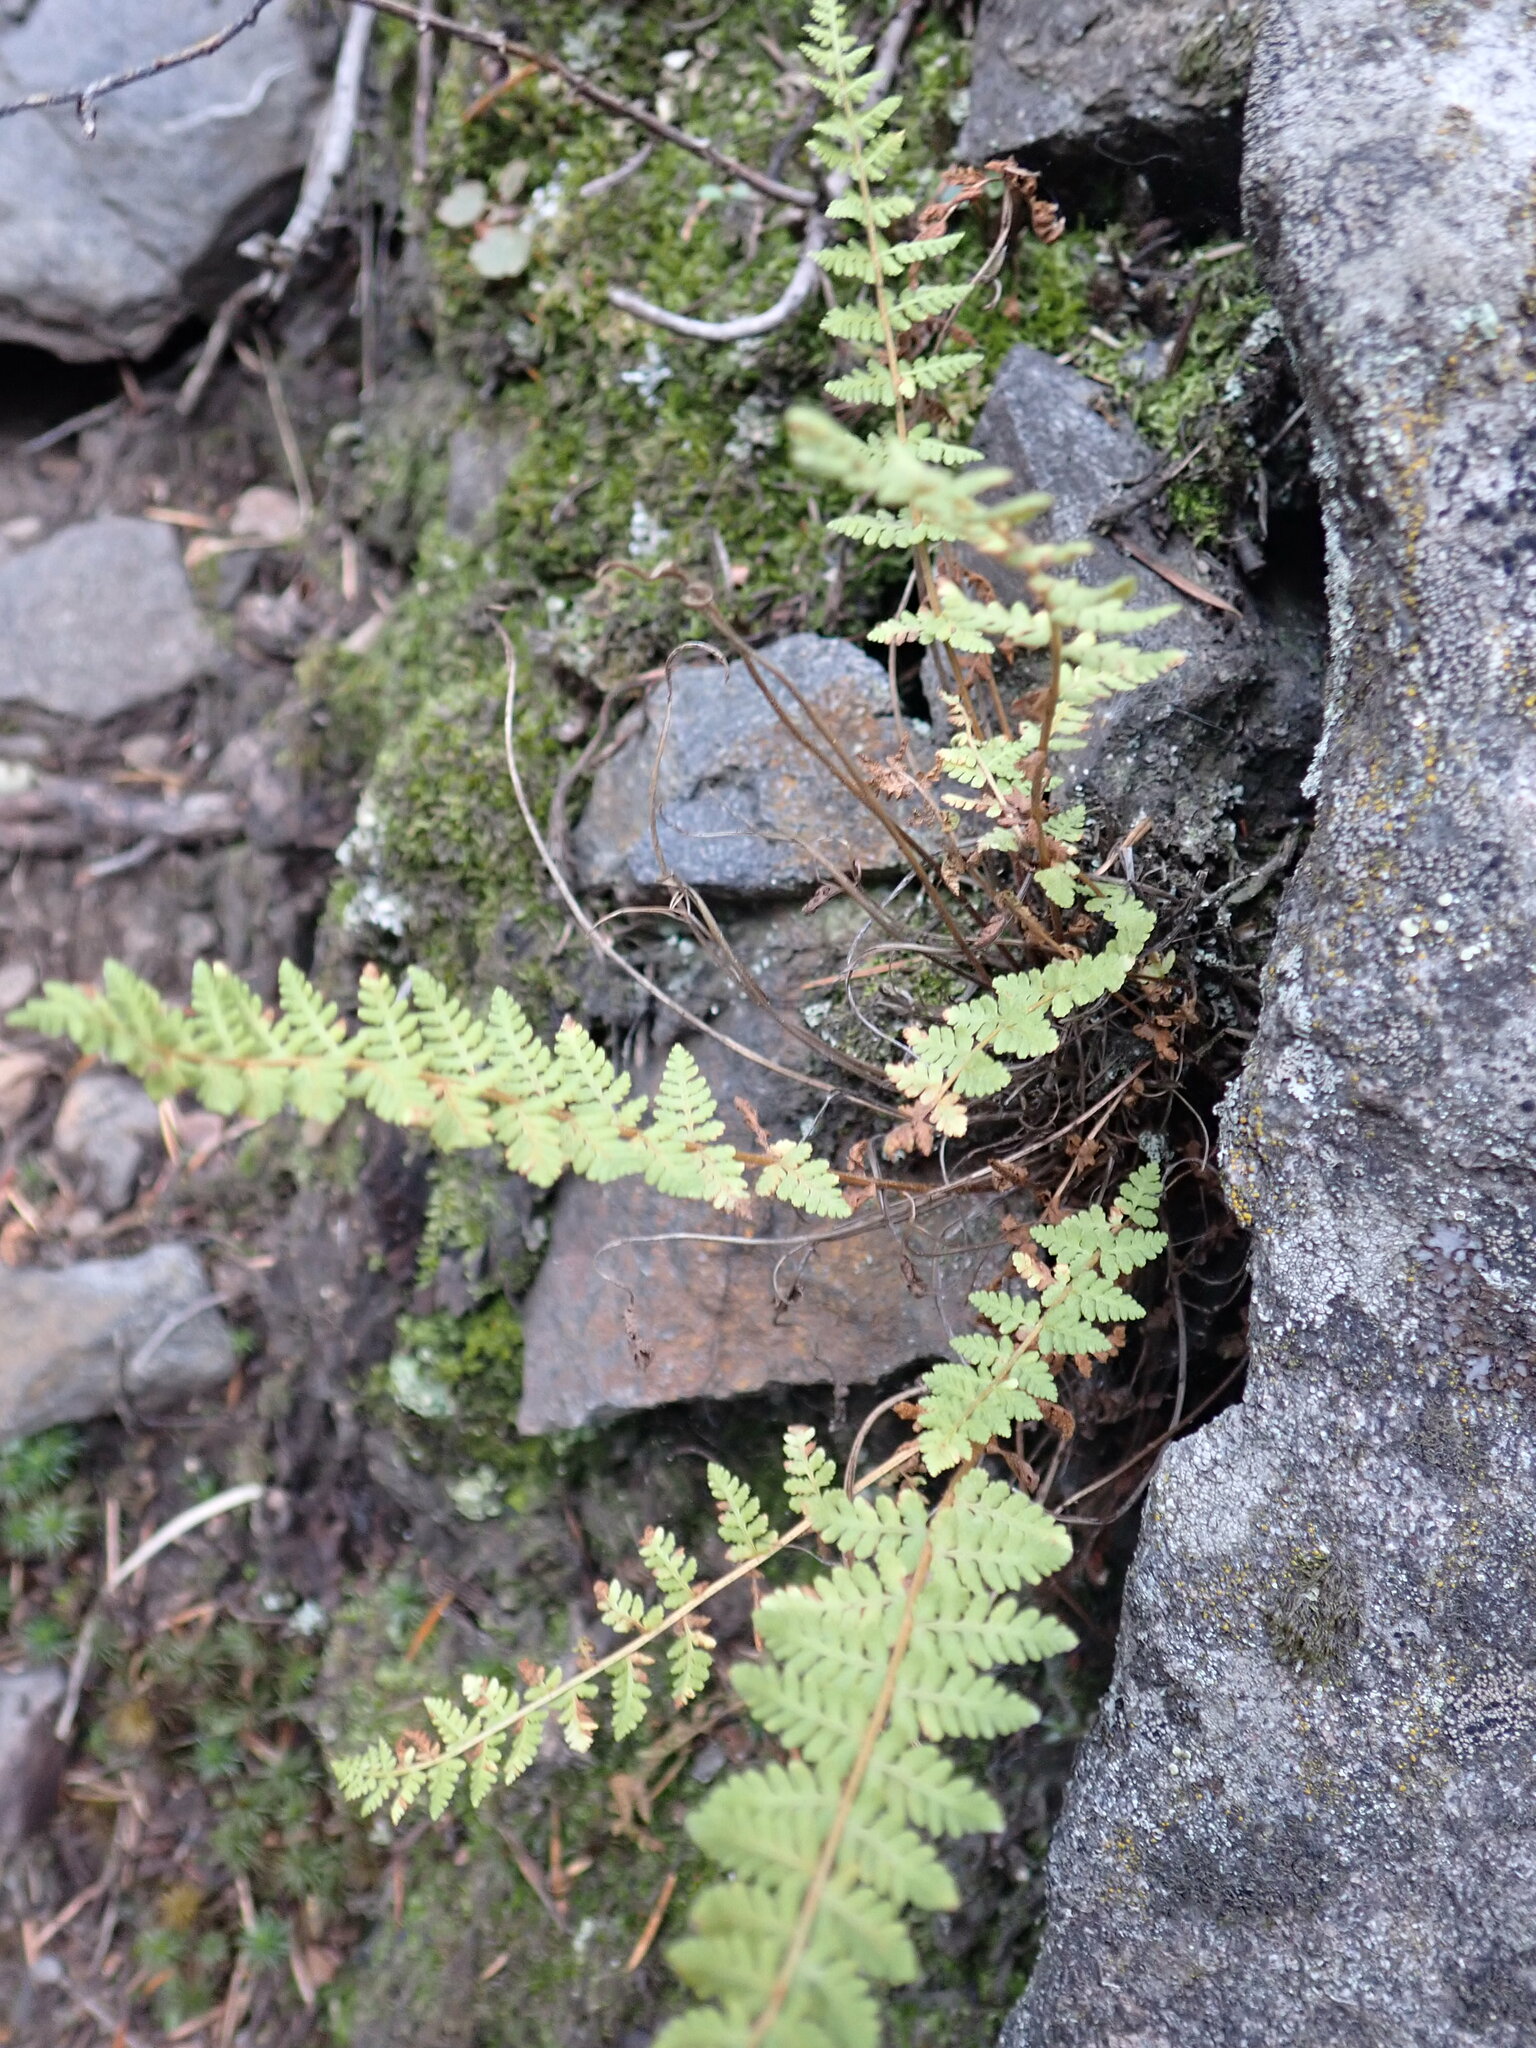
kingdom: Plantae
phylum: Tracheophyta
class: Polypodiopsida
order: Polypodiales
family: Woodsiaceae
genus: Physematium
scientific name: Physematium scopulinum
